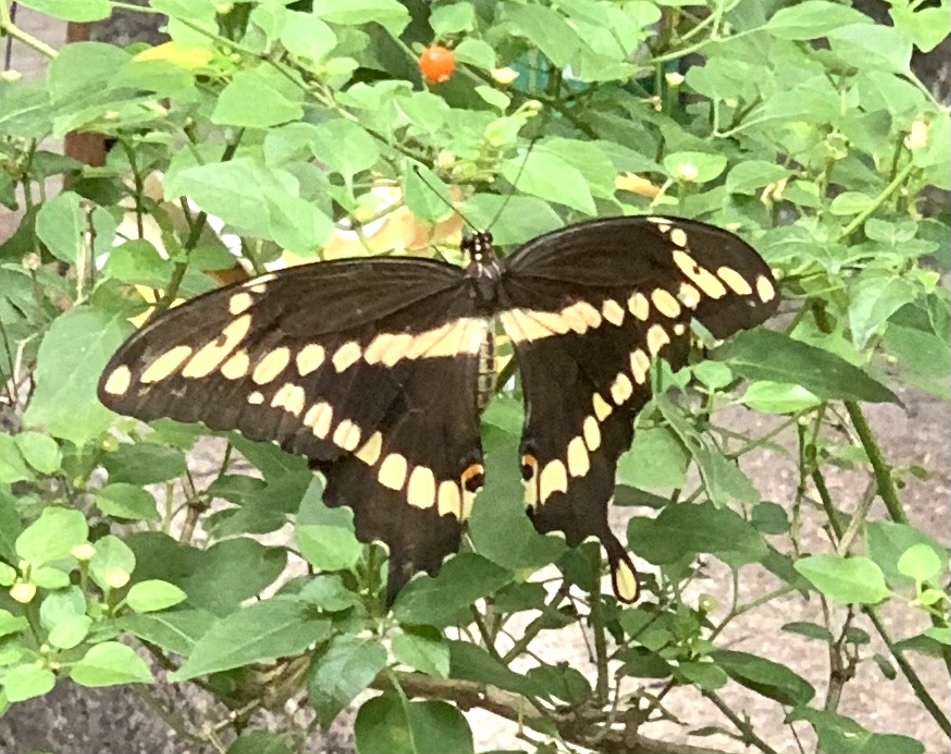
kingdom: Animalia
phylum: Arthropoda
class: Insecta
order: Lepidoptera
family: Papilionidae
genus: Papilio
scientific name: Papilio cresphontes
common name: Giant swallowtail
